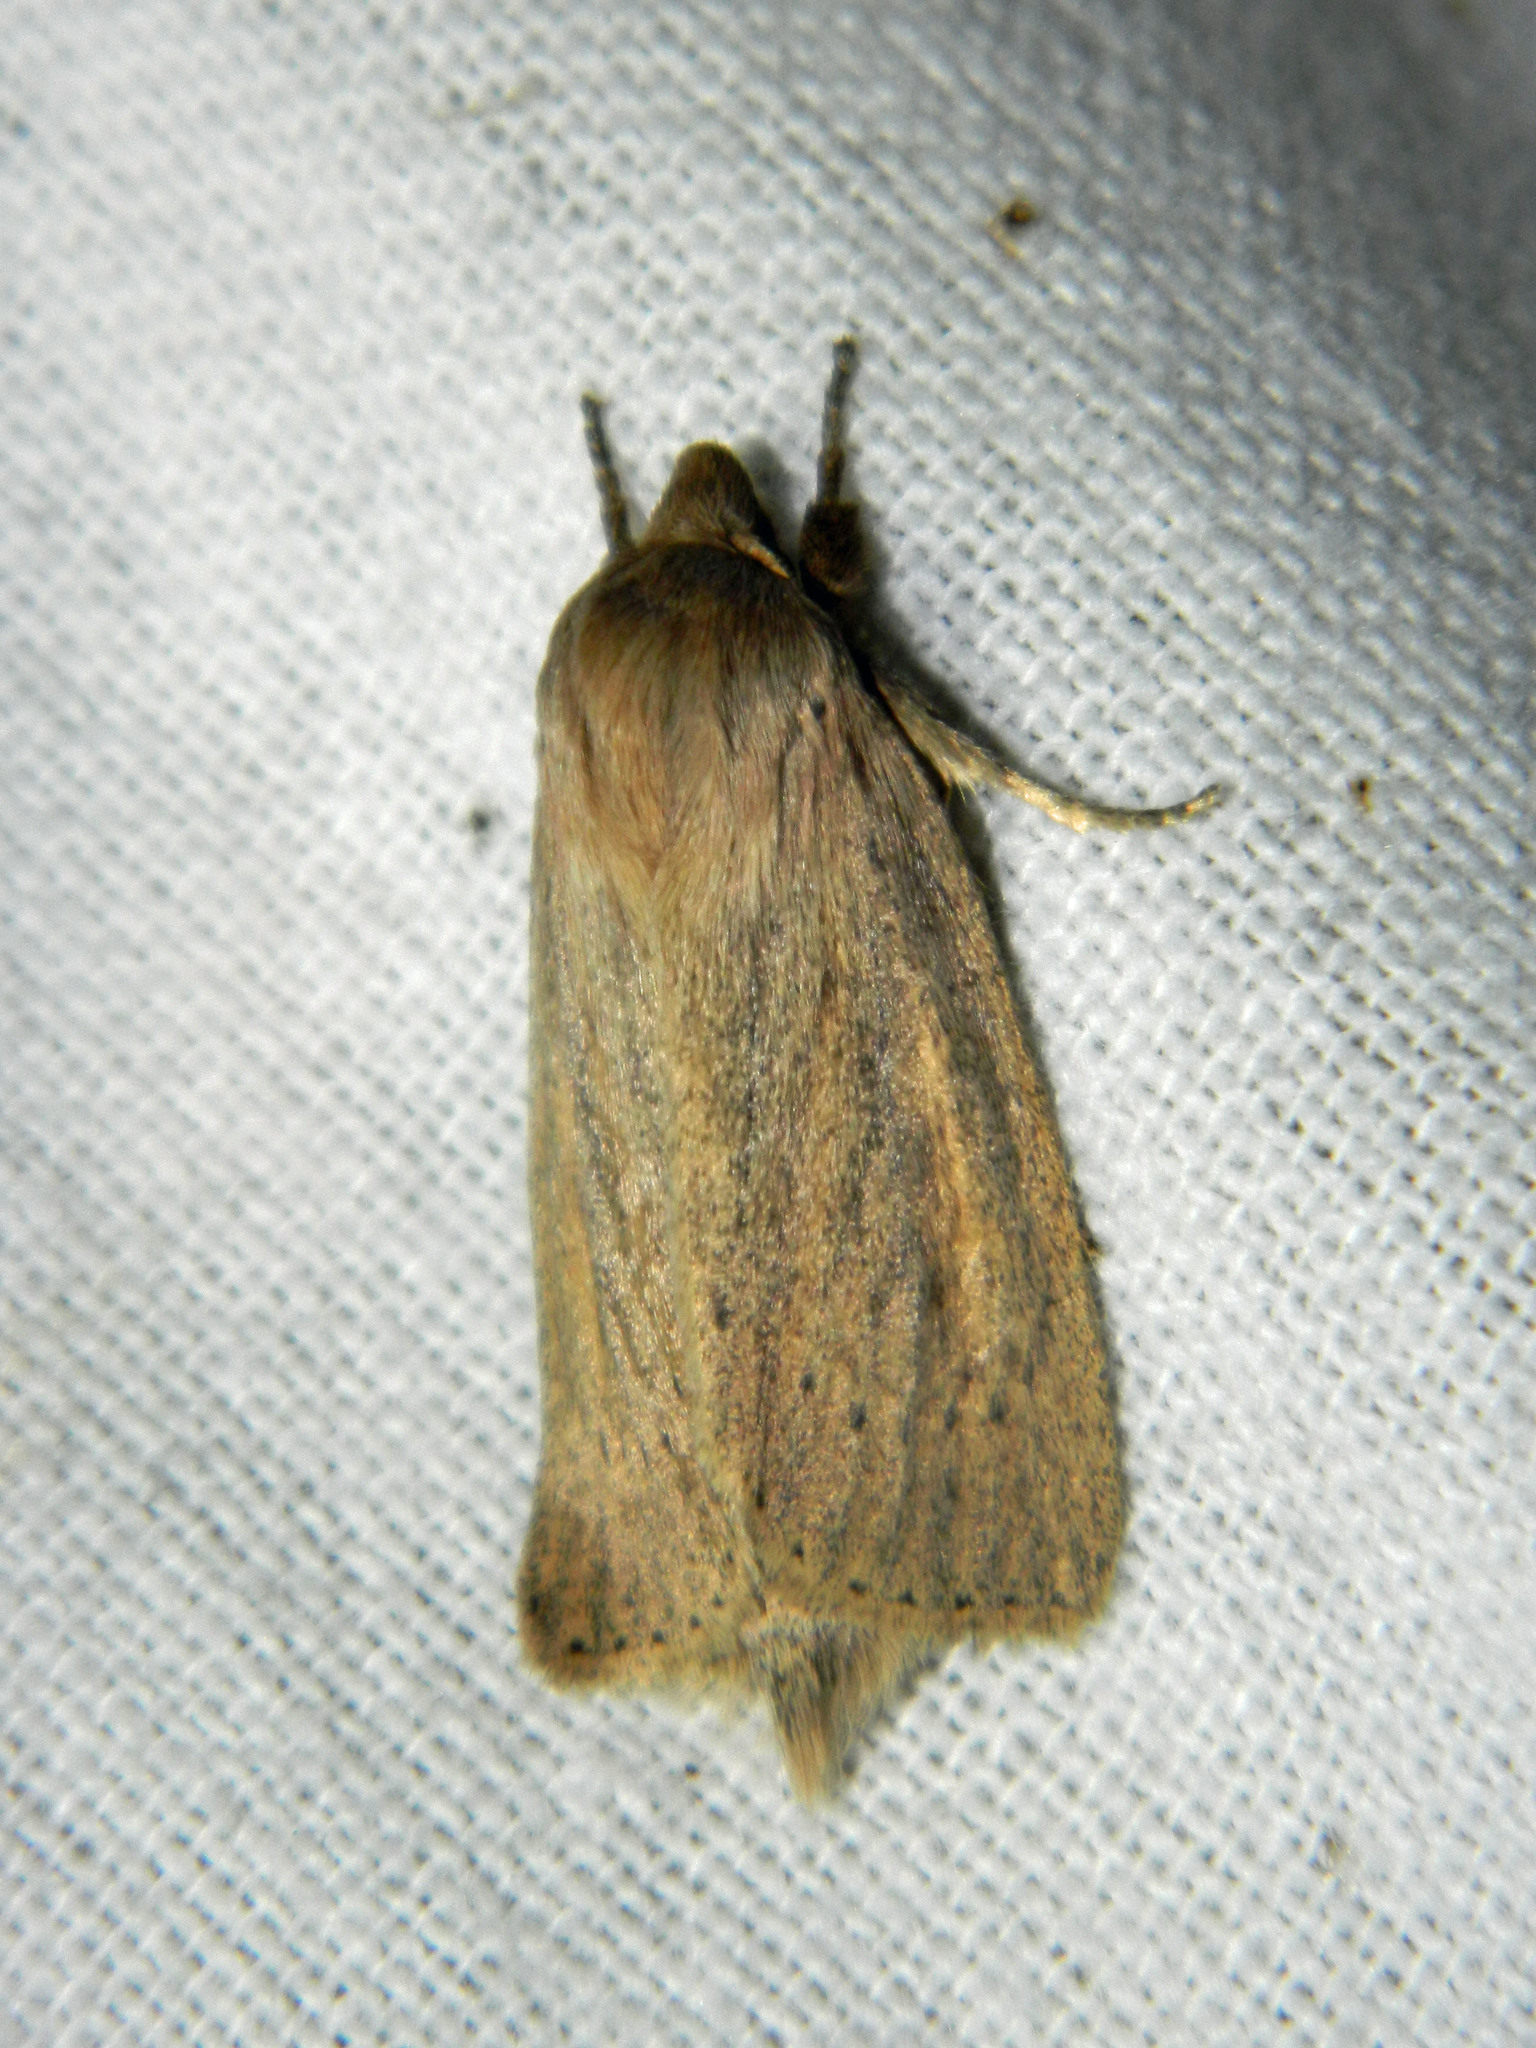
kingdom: Animalia
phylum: Arthropoda
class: Insecta
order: Lepidoptera
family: Noctuidae
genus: Globia
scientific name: Globia oblonga
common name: Oblong sedge borer moth
